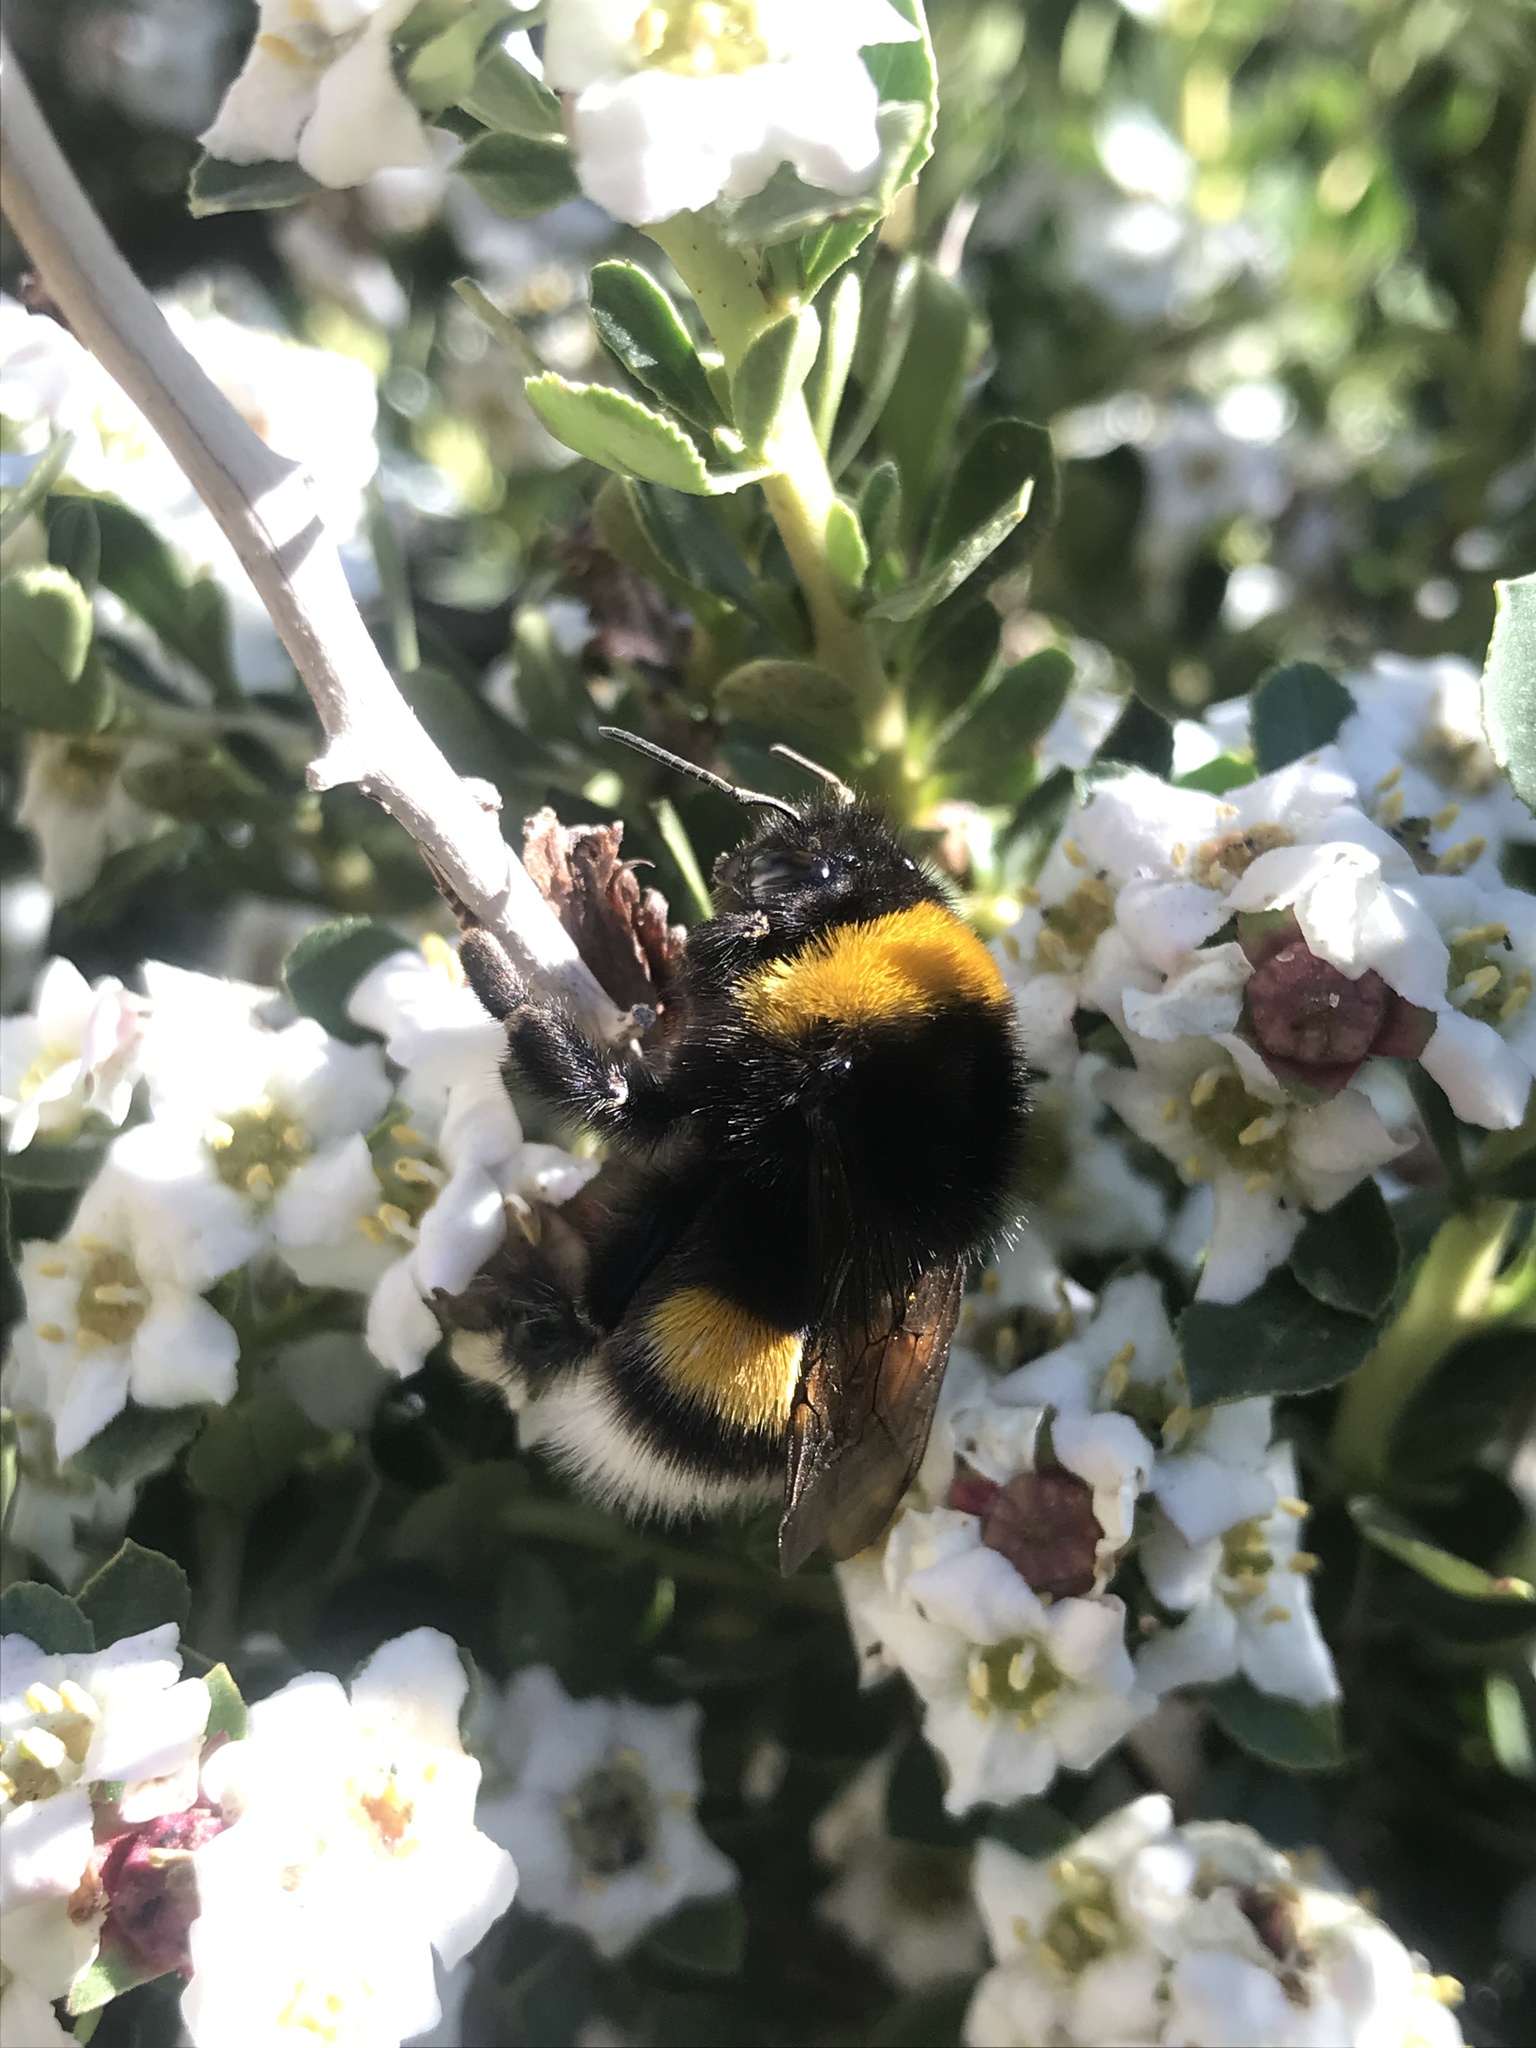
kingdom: Animalia
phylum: Arthropoda
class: Insecta
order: Hymenoptera
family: Apidae
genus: Bombus
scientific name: Bombus terrestris
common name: Buff-tailed bumblebee
